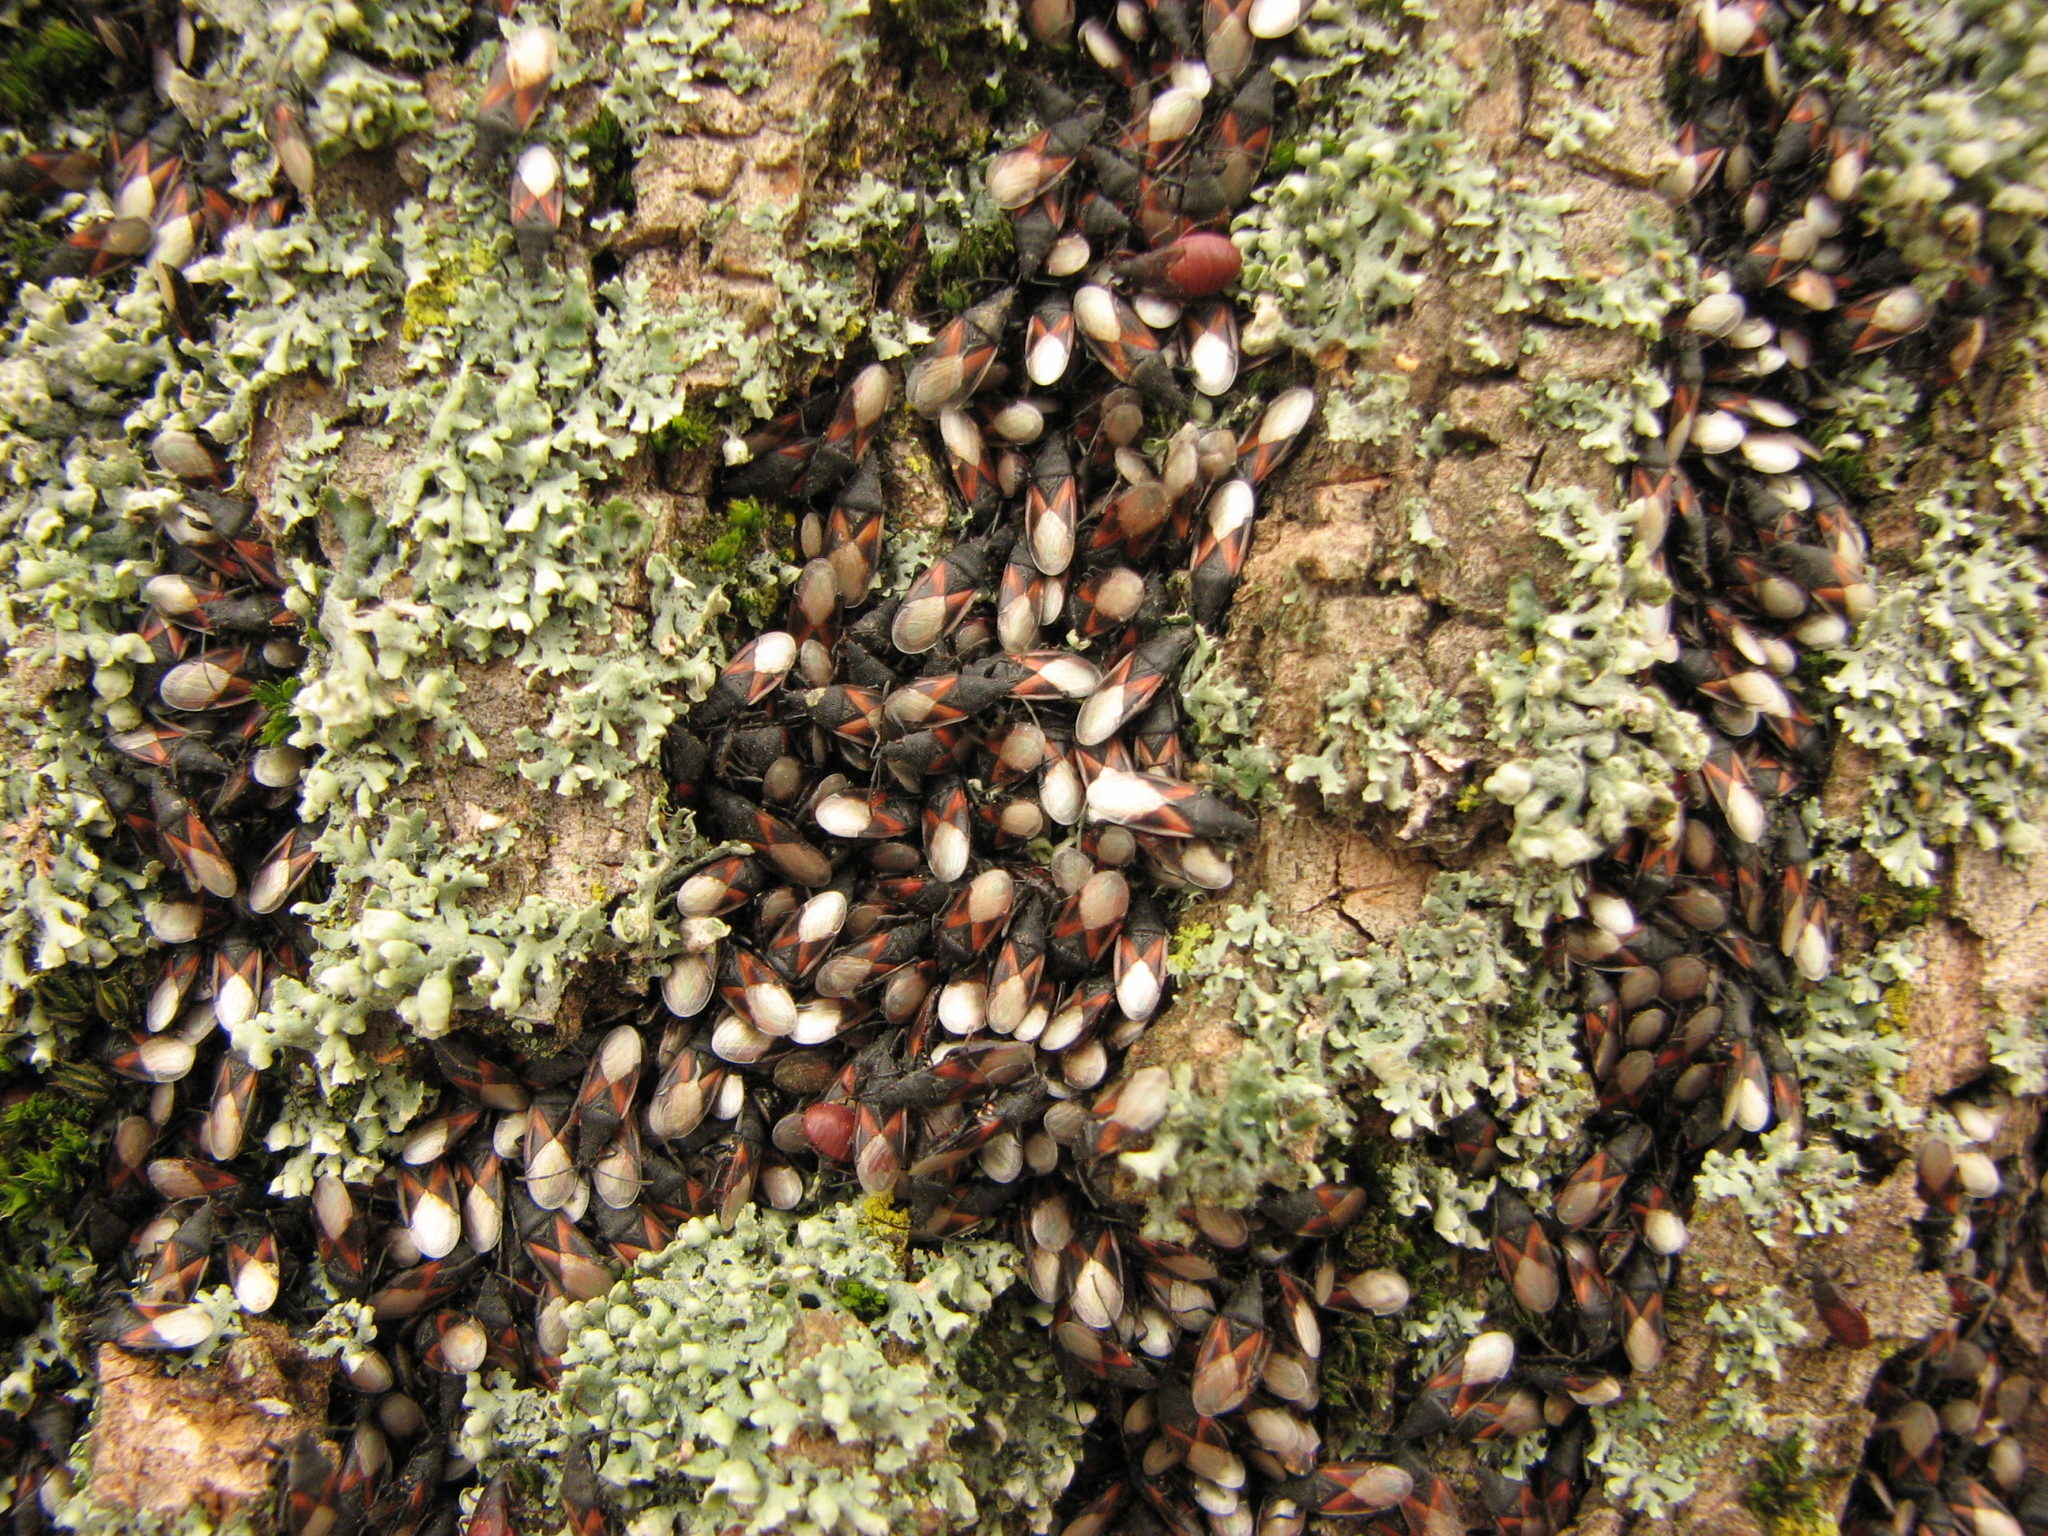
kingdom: Animalia
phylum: Arthropoda
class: Insecta
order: Hemiptera
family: Oxycarenidae
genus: Oxycarenus
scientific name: Oxycarenus lavaterae
